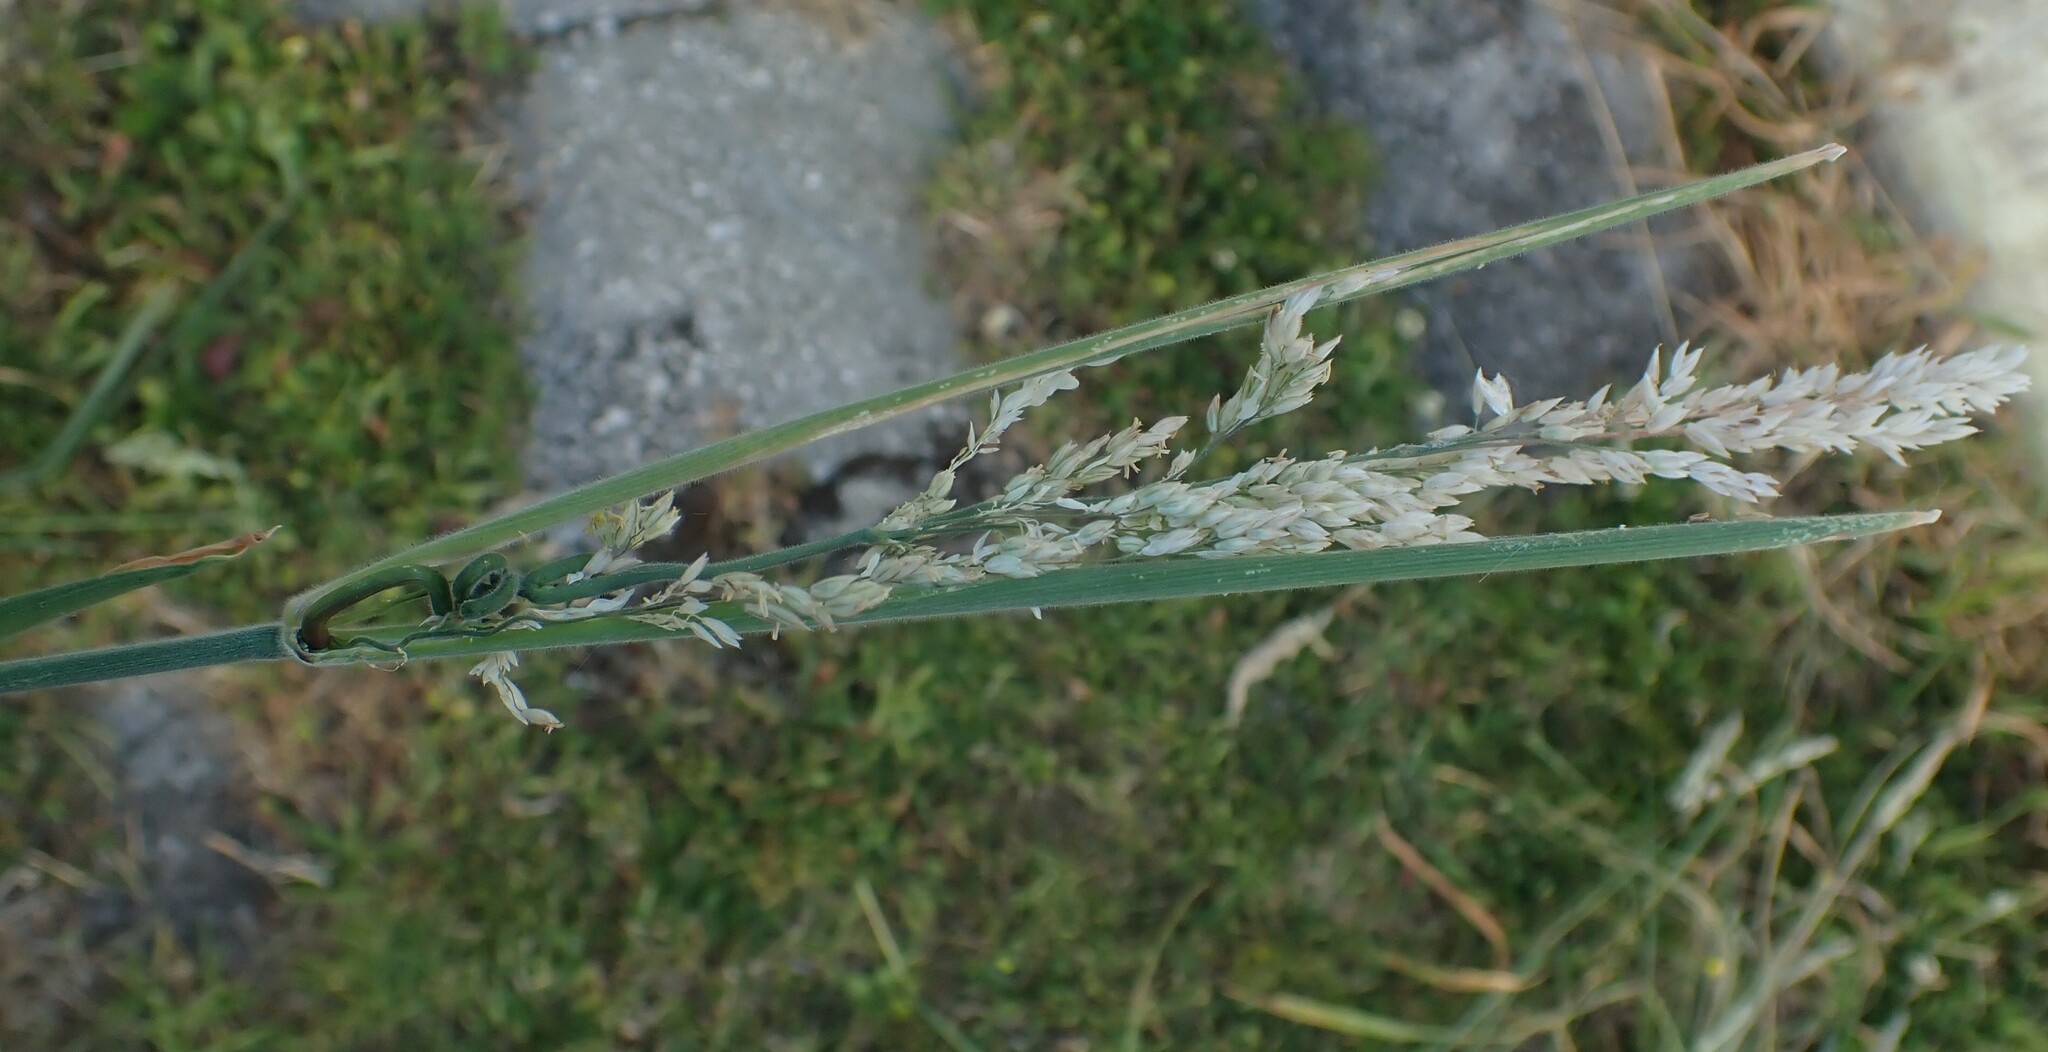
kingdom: Plantae
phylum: Tracheophyta
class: Liliopsida
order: Poales
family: Poaceae
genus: Holcus
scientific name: Holcus lanatus
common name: Yorkshire-fog
